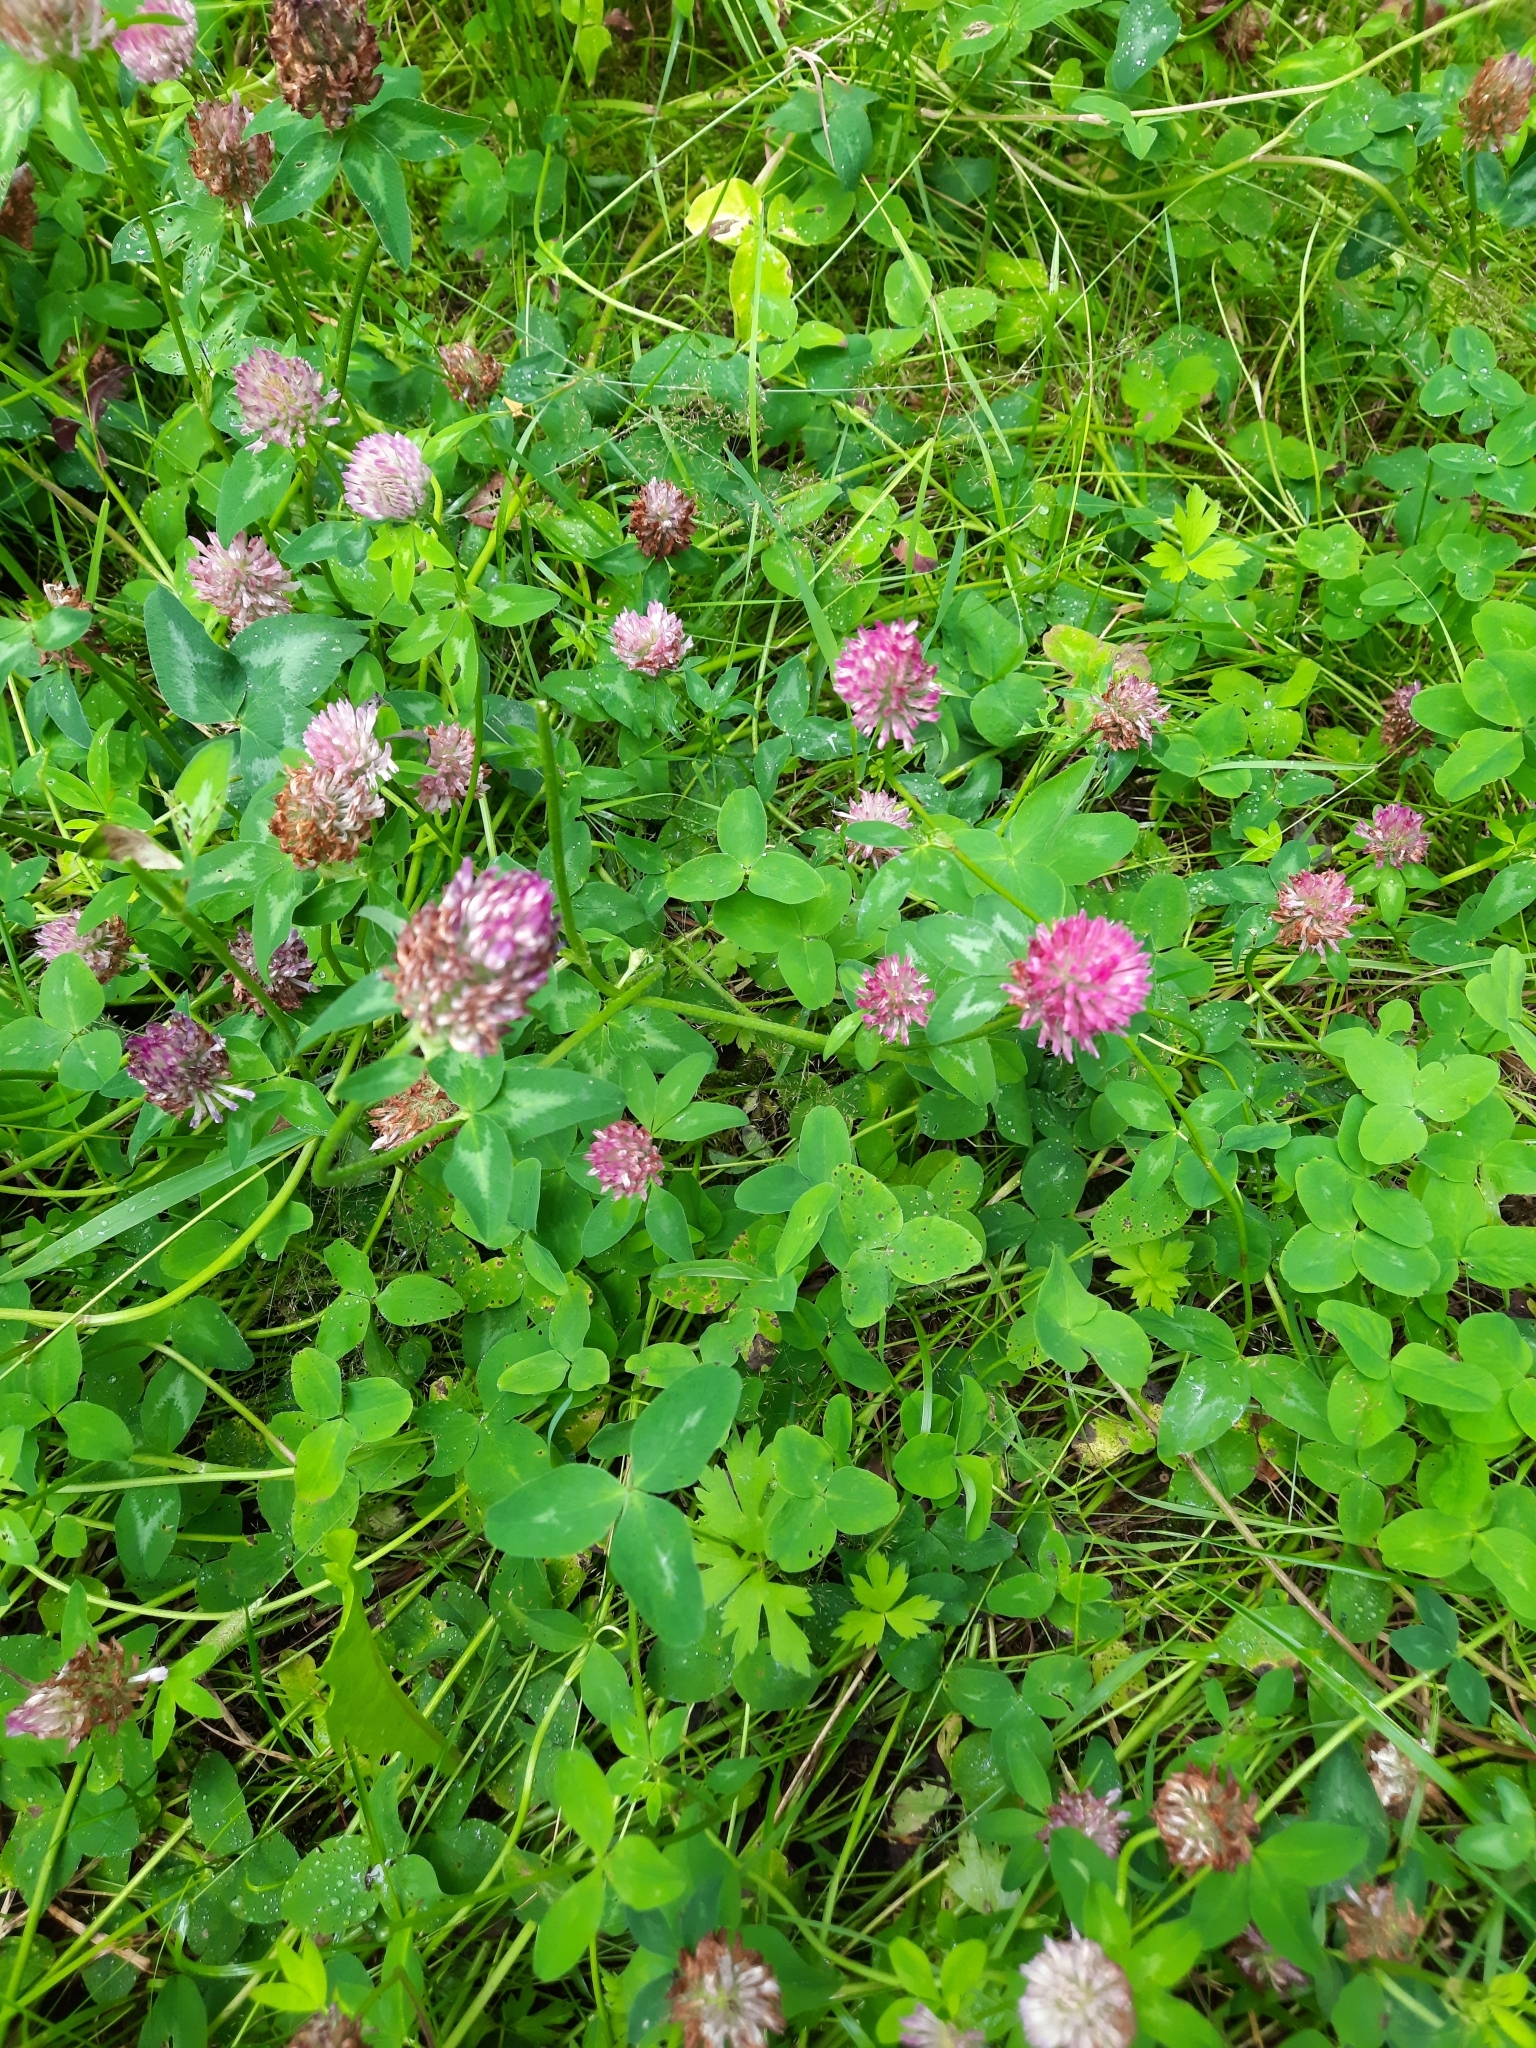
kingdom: Plantae
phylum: Tracheophyta
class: Magnoliopsida
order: Fabales
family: Fabaceae
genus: Trifolium
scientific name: Trifolium pratense
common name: Red clover
